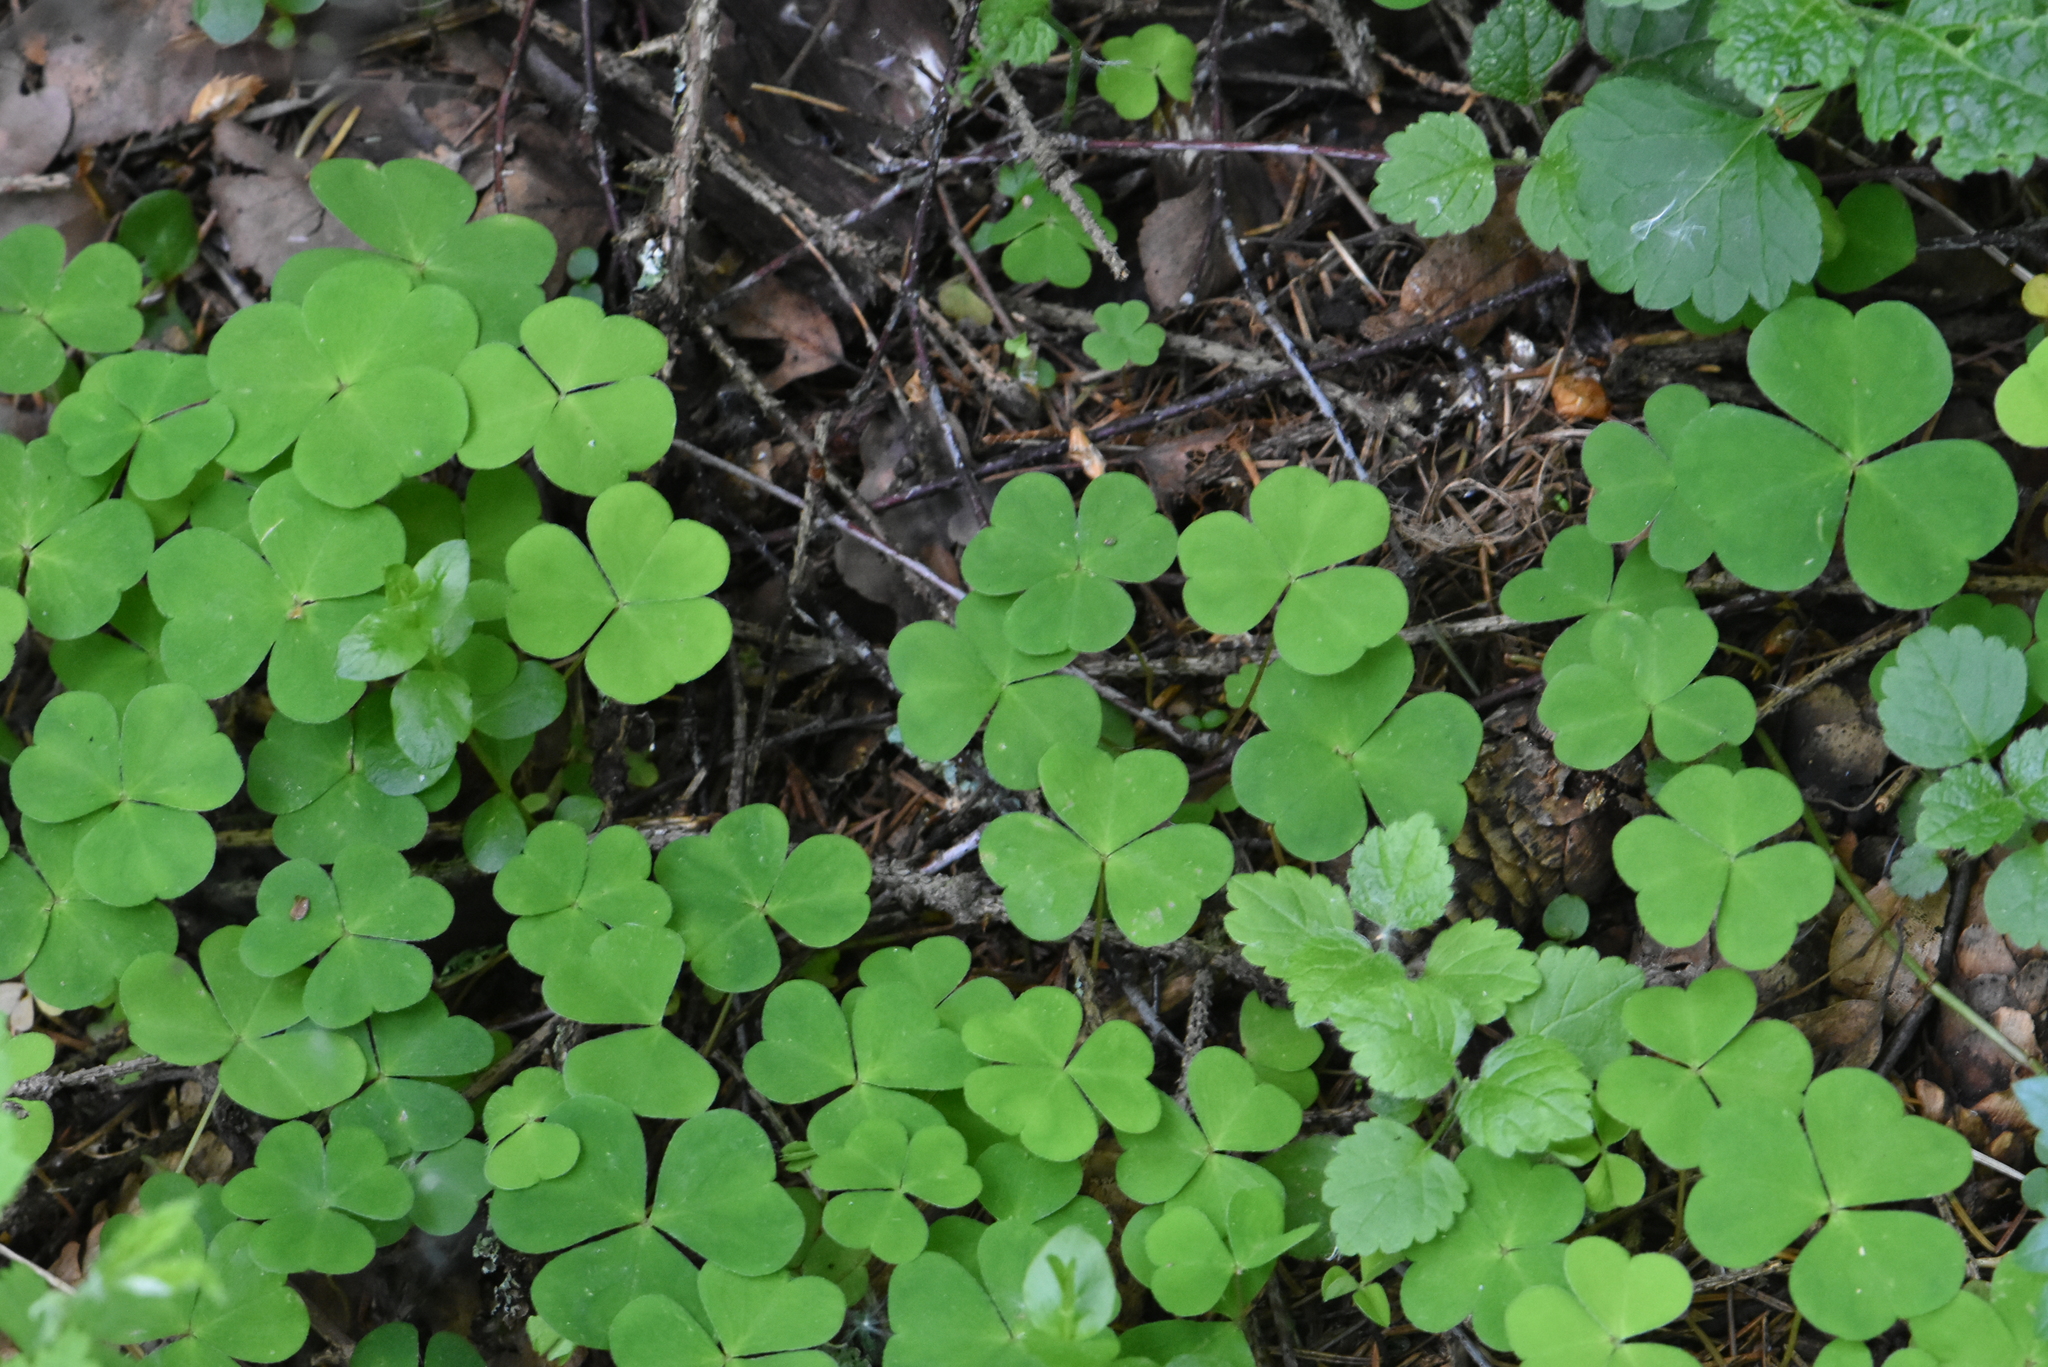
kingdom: Plantae
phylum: Tracheophyta
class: Magnoliopsida
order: Oxalidales
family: Oxalidaceae
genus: Oxalis
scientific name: Oxalis acetosella
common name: Wood-sorrel
